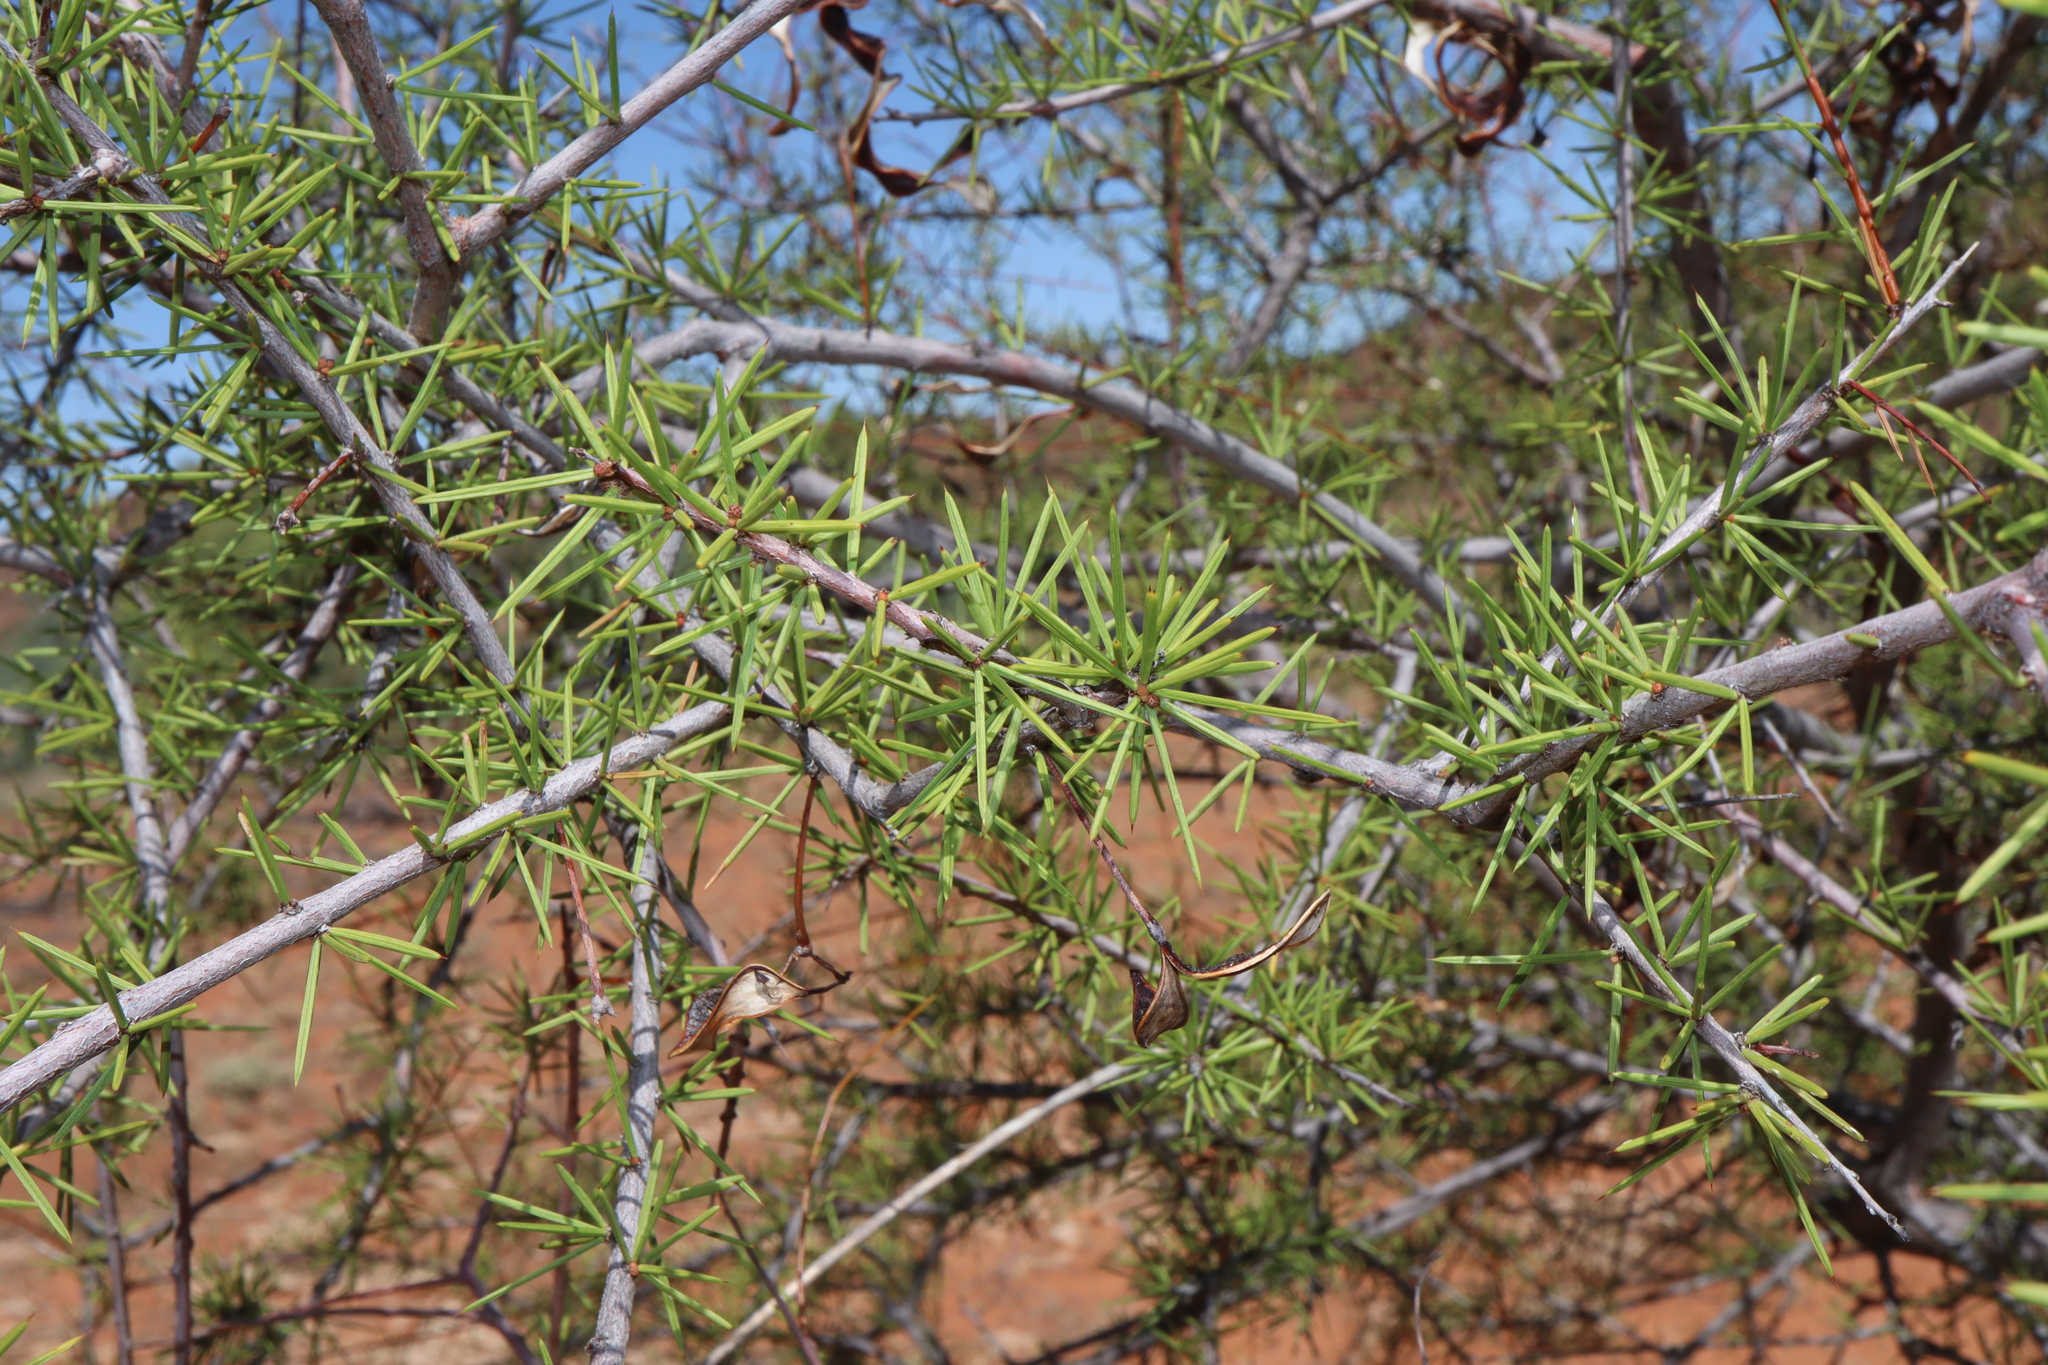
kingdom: Plantae
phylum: Tracheophyta
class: Magnoliopsida
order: Fabales
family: Fabaceae
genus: Acacia
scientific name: Acacia tetragonophylla
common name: Dead finish
